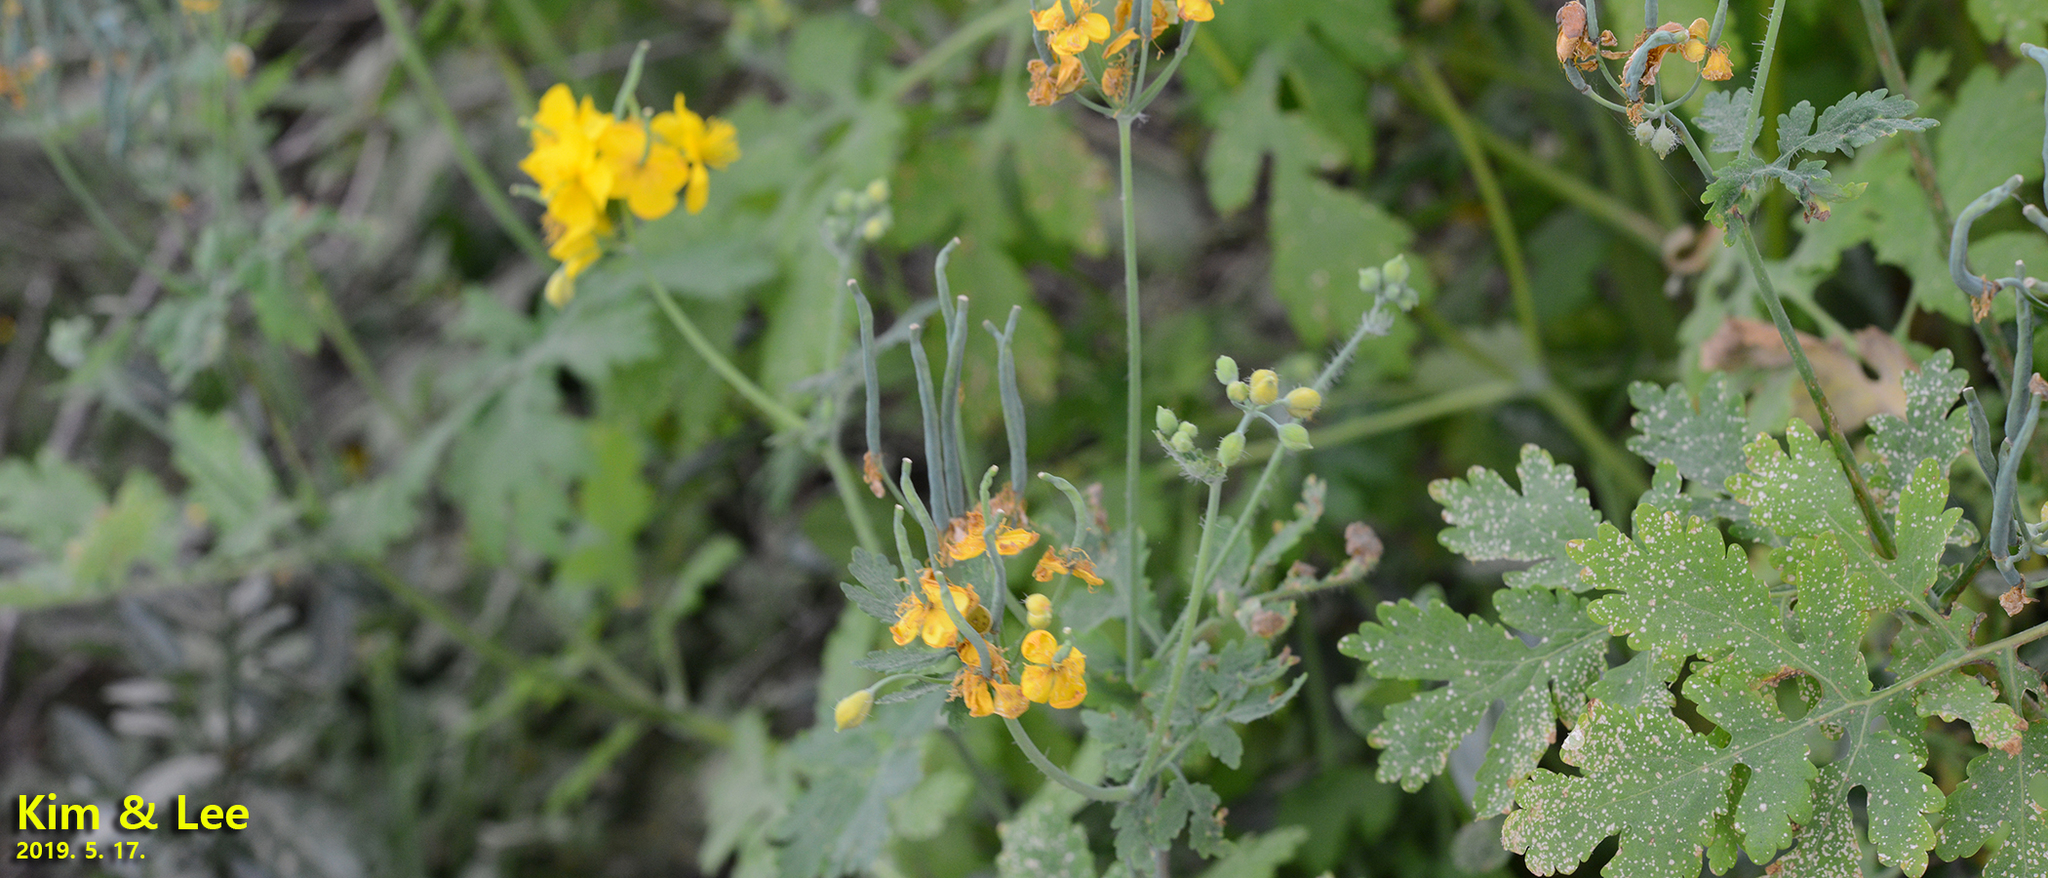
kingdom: Plantae
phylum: Tracheophyta
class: Magnoliopsida
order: Ranunculales
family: Papaveraceae
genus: Chelidonium
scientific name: Chelidonium majus
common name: Greater celandine
